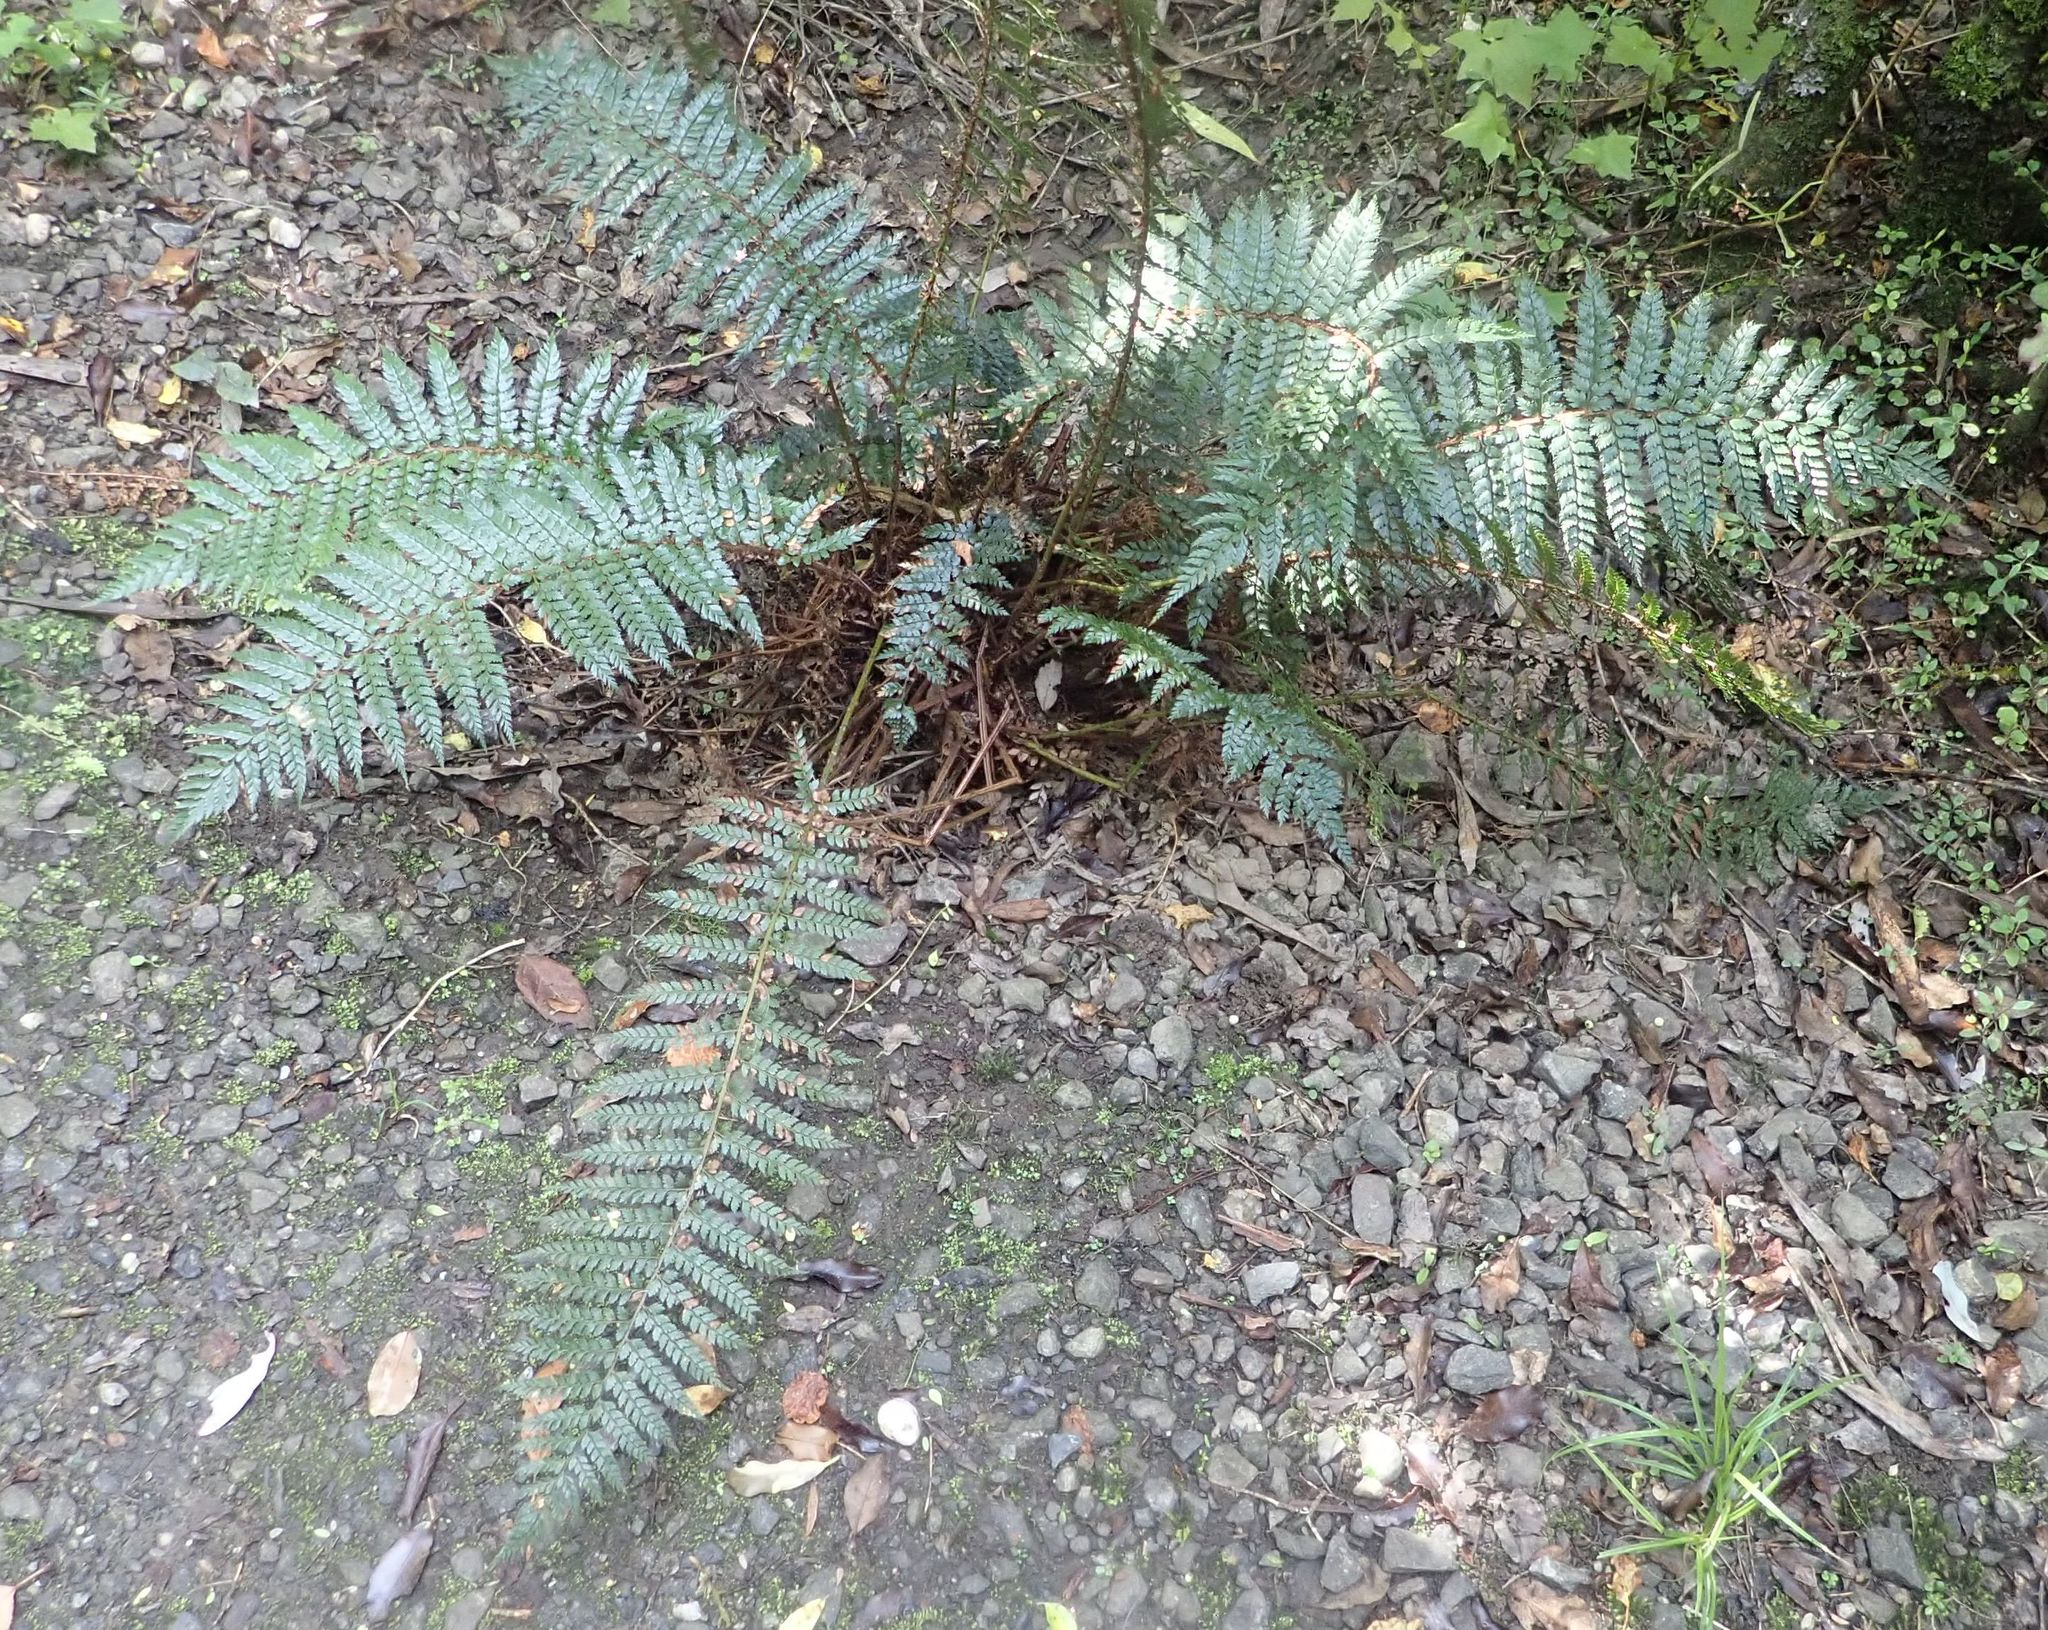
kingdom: Plantae
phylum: Tracheophyta
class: Polypodiopsida
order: Polypodiales
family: Dryopteridaceae
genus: Polystichum
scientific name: Polystichum vestitum
